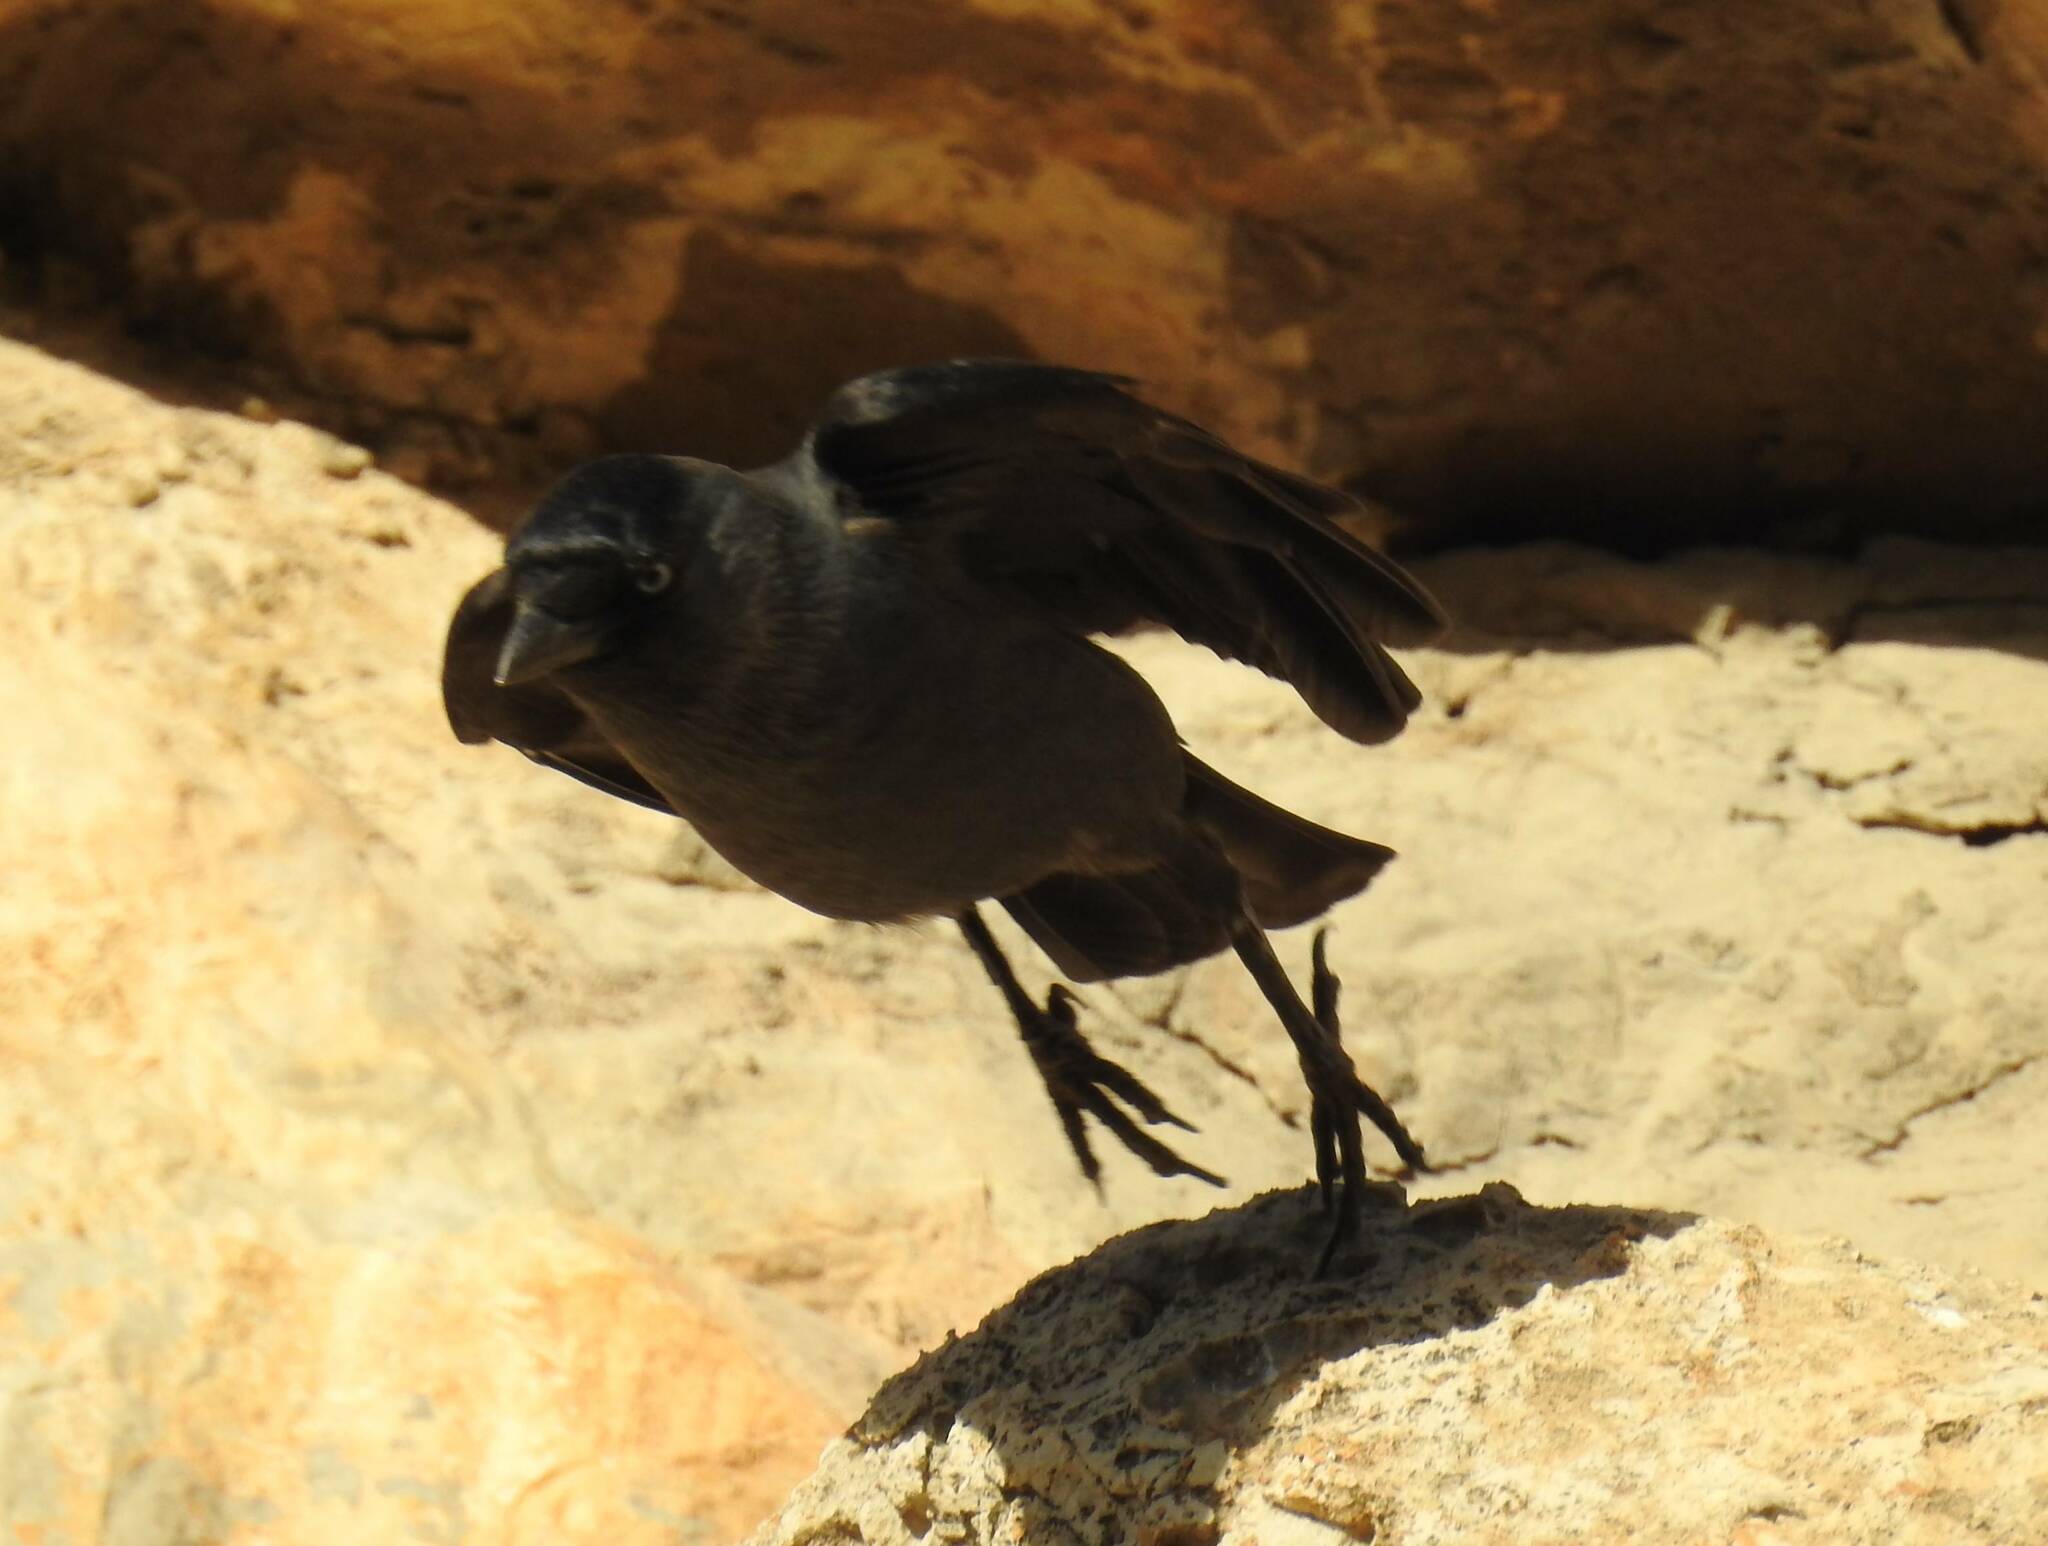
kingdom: Animalia
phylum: Chordata
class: Aves
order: Passeriformes
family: Corvidae
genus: Coloeus
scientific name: Coloeus monedula
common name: Western jackdaw
